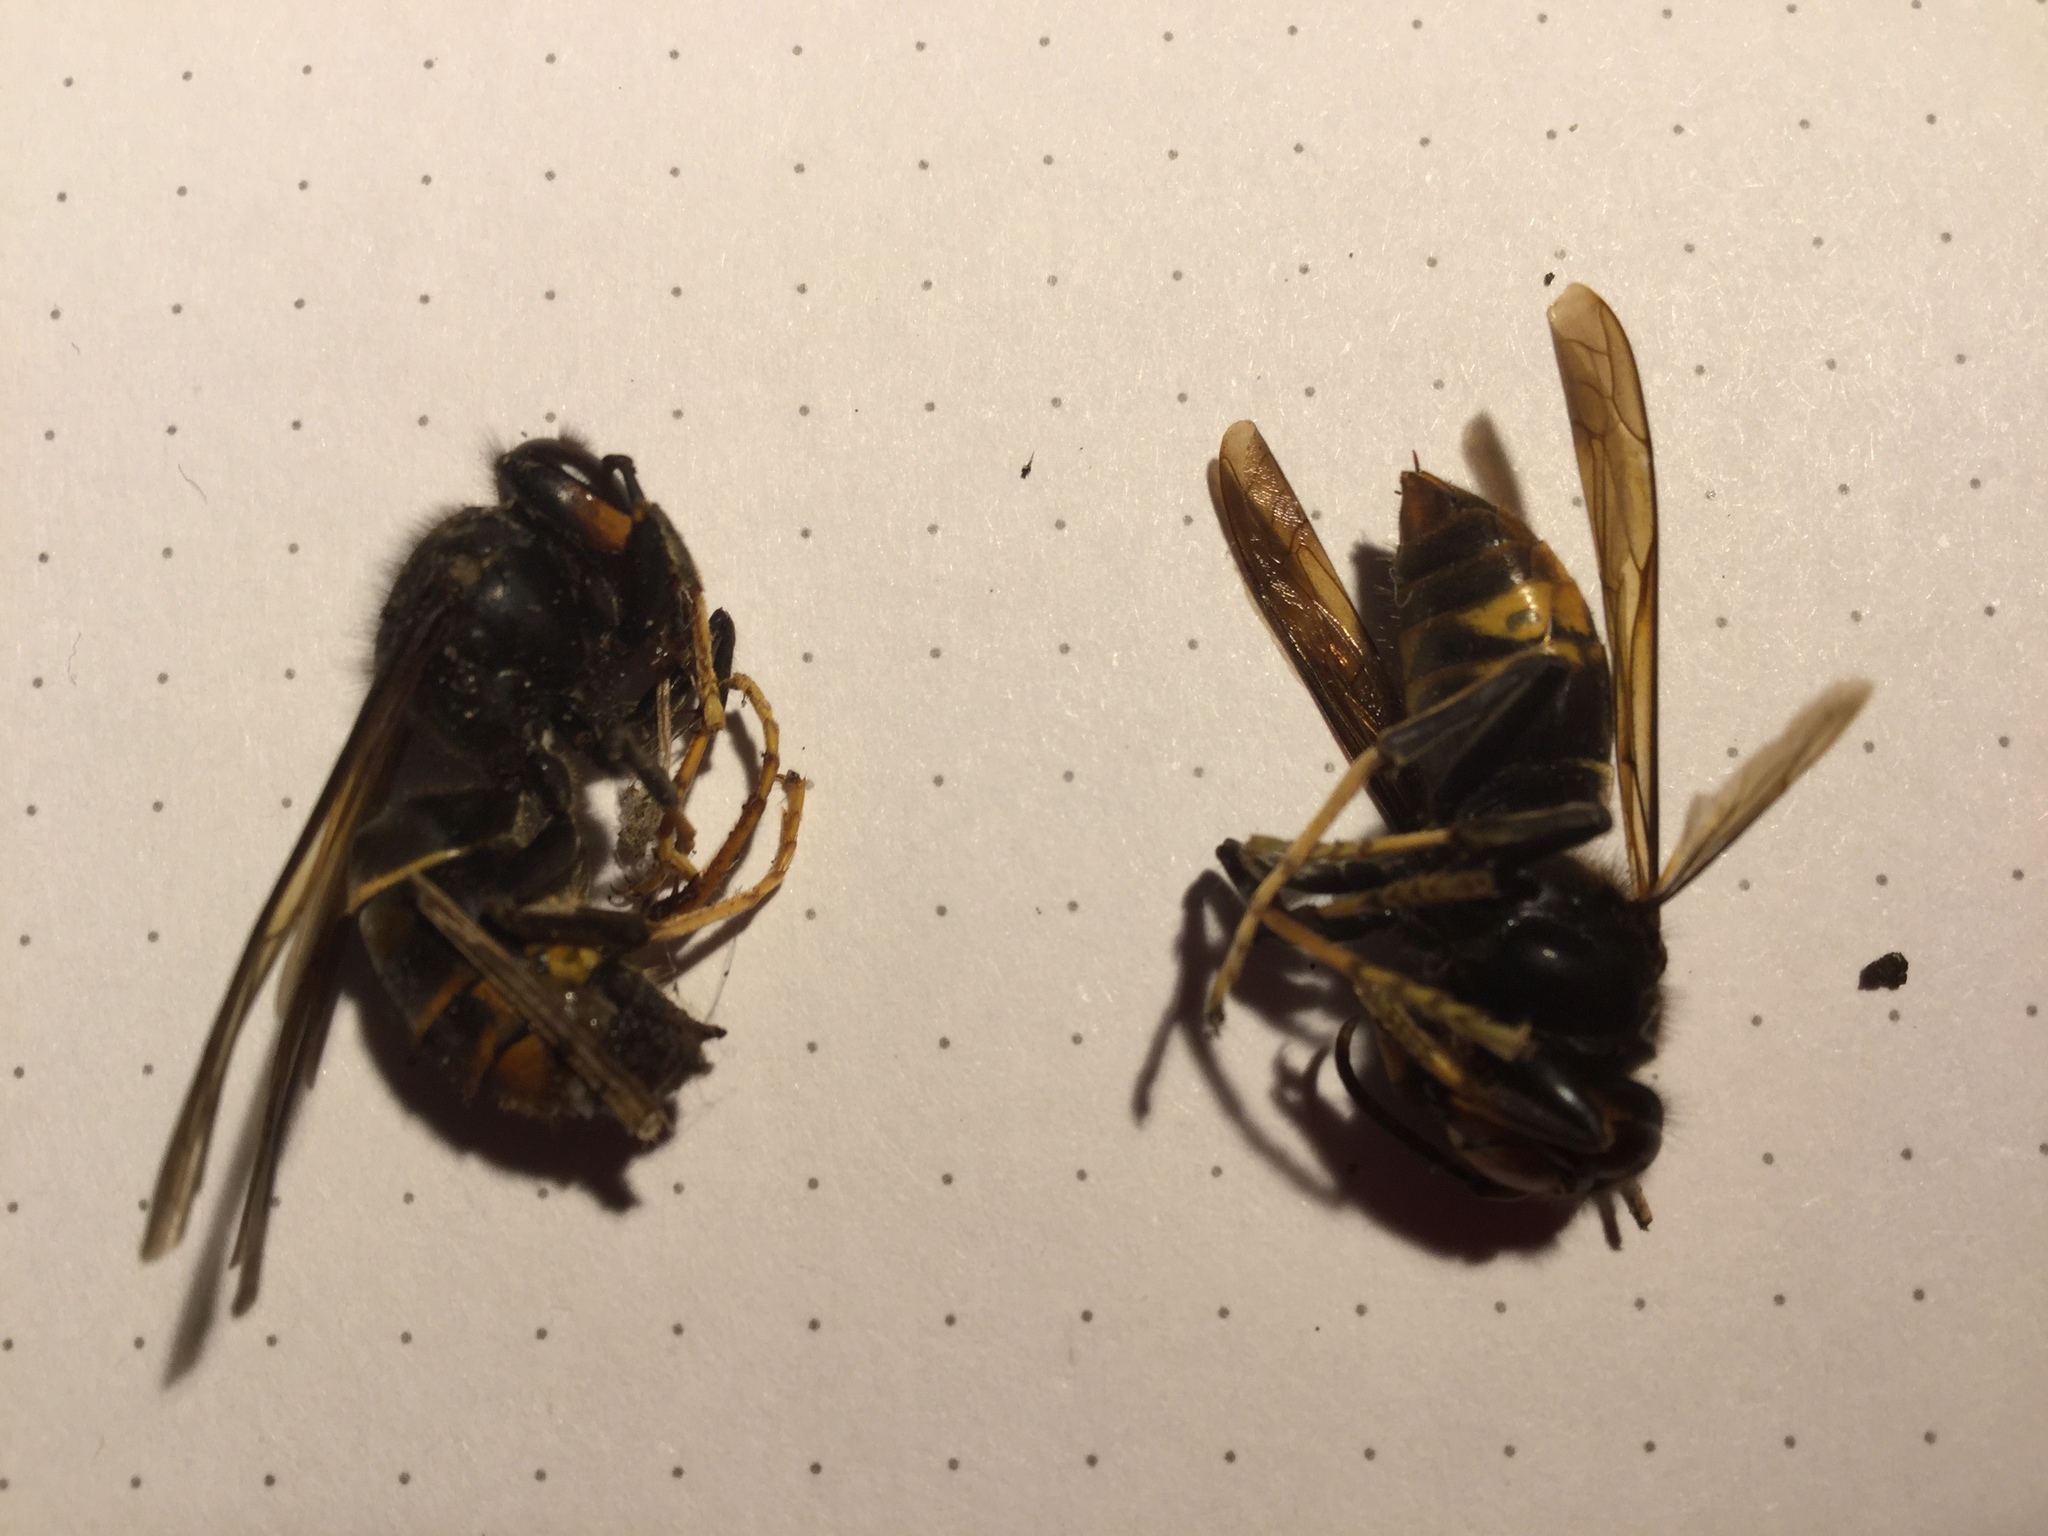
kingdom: Animalia
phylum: Arthropoda
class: Insecta
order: Hymenoptera
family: Vespidae
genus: Vespa
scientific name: Vespa velutina
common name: Asian hornet
